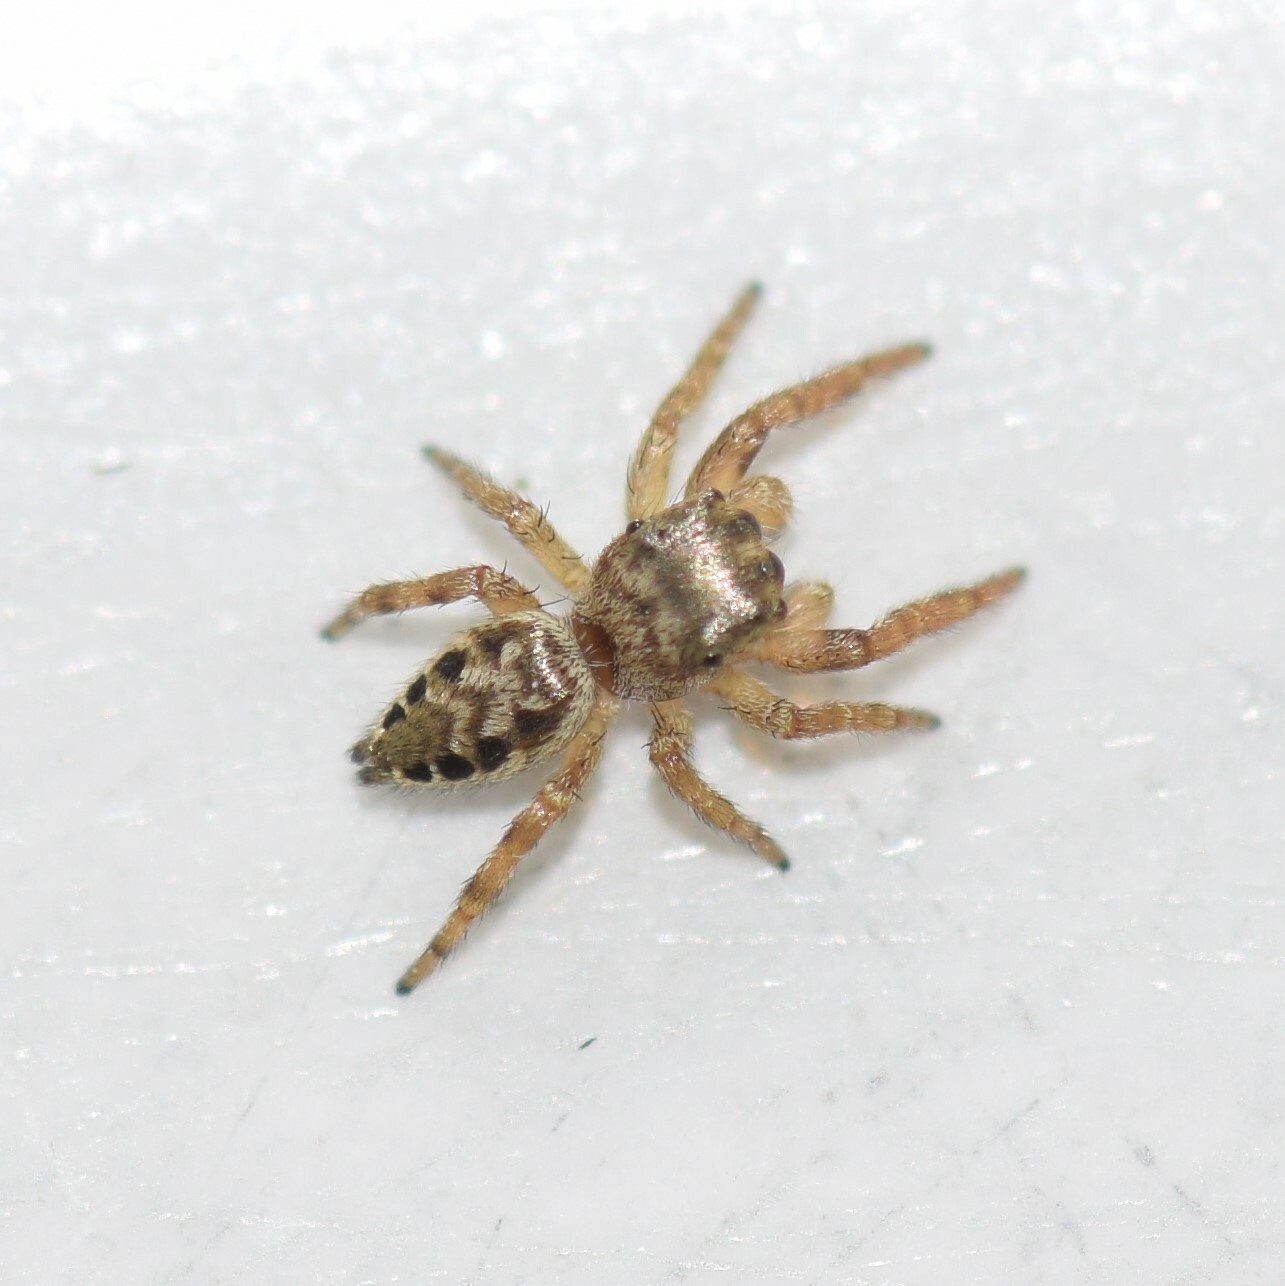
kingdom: Animalia
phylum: Arthropoda
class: Arachnida
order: Araneae
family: Salticidae
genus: Pelegrina
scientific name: Pelegrina proterva
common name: Common white-cheeked jumping spider
